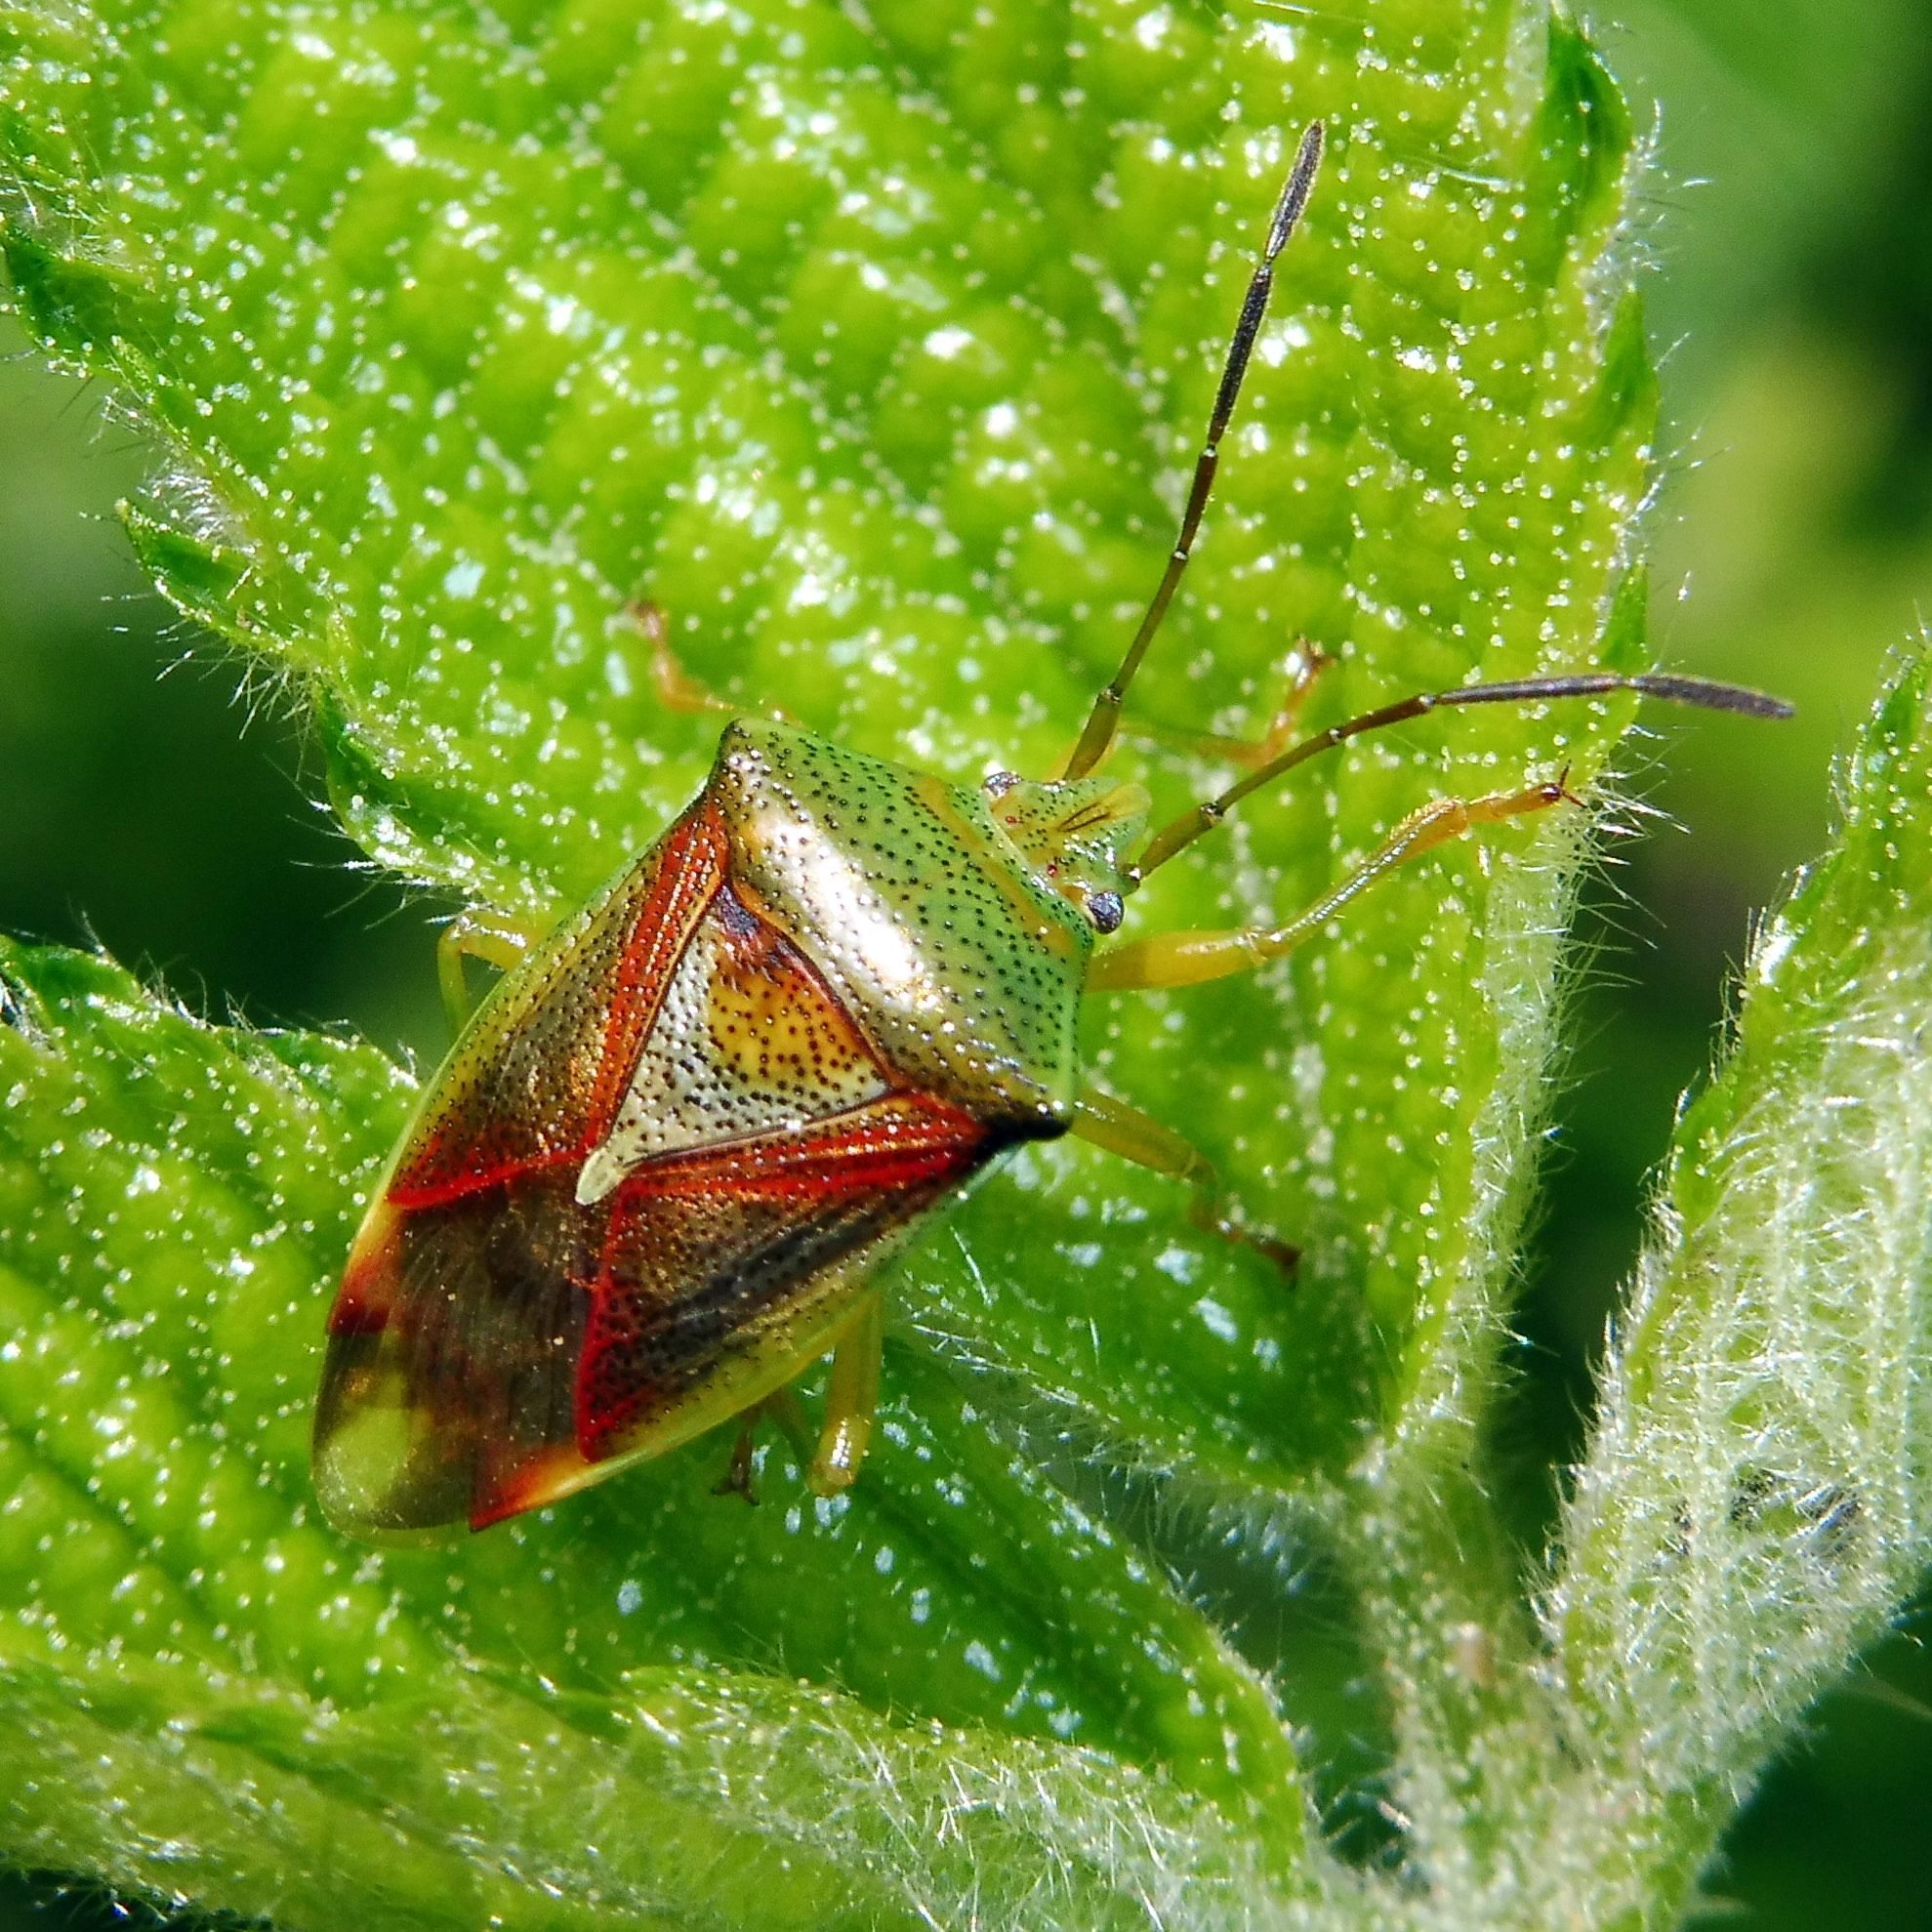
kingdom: Animalia
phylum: Arthropoda
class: Insecta
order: Hemiptera
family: Acanthosomatidae
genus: Elasmostethus
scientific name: Elasmostethus interstinctus
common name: Birch shieldbug
